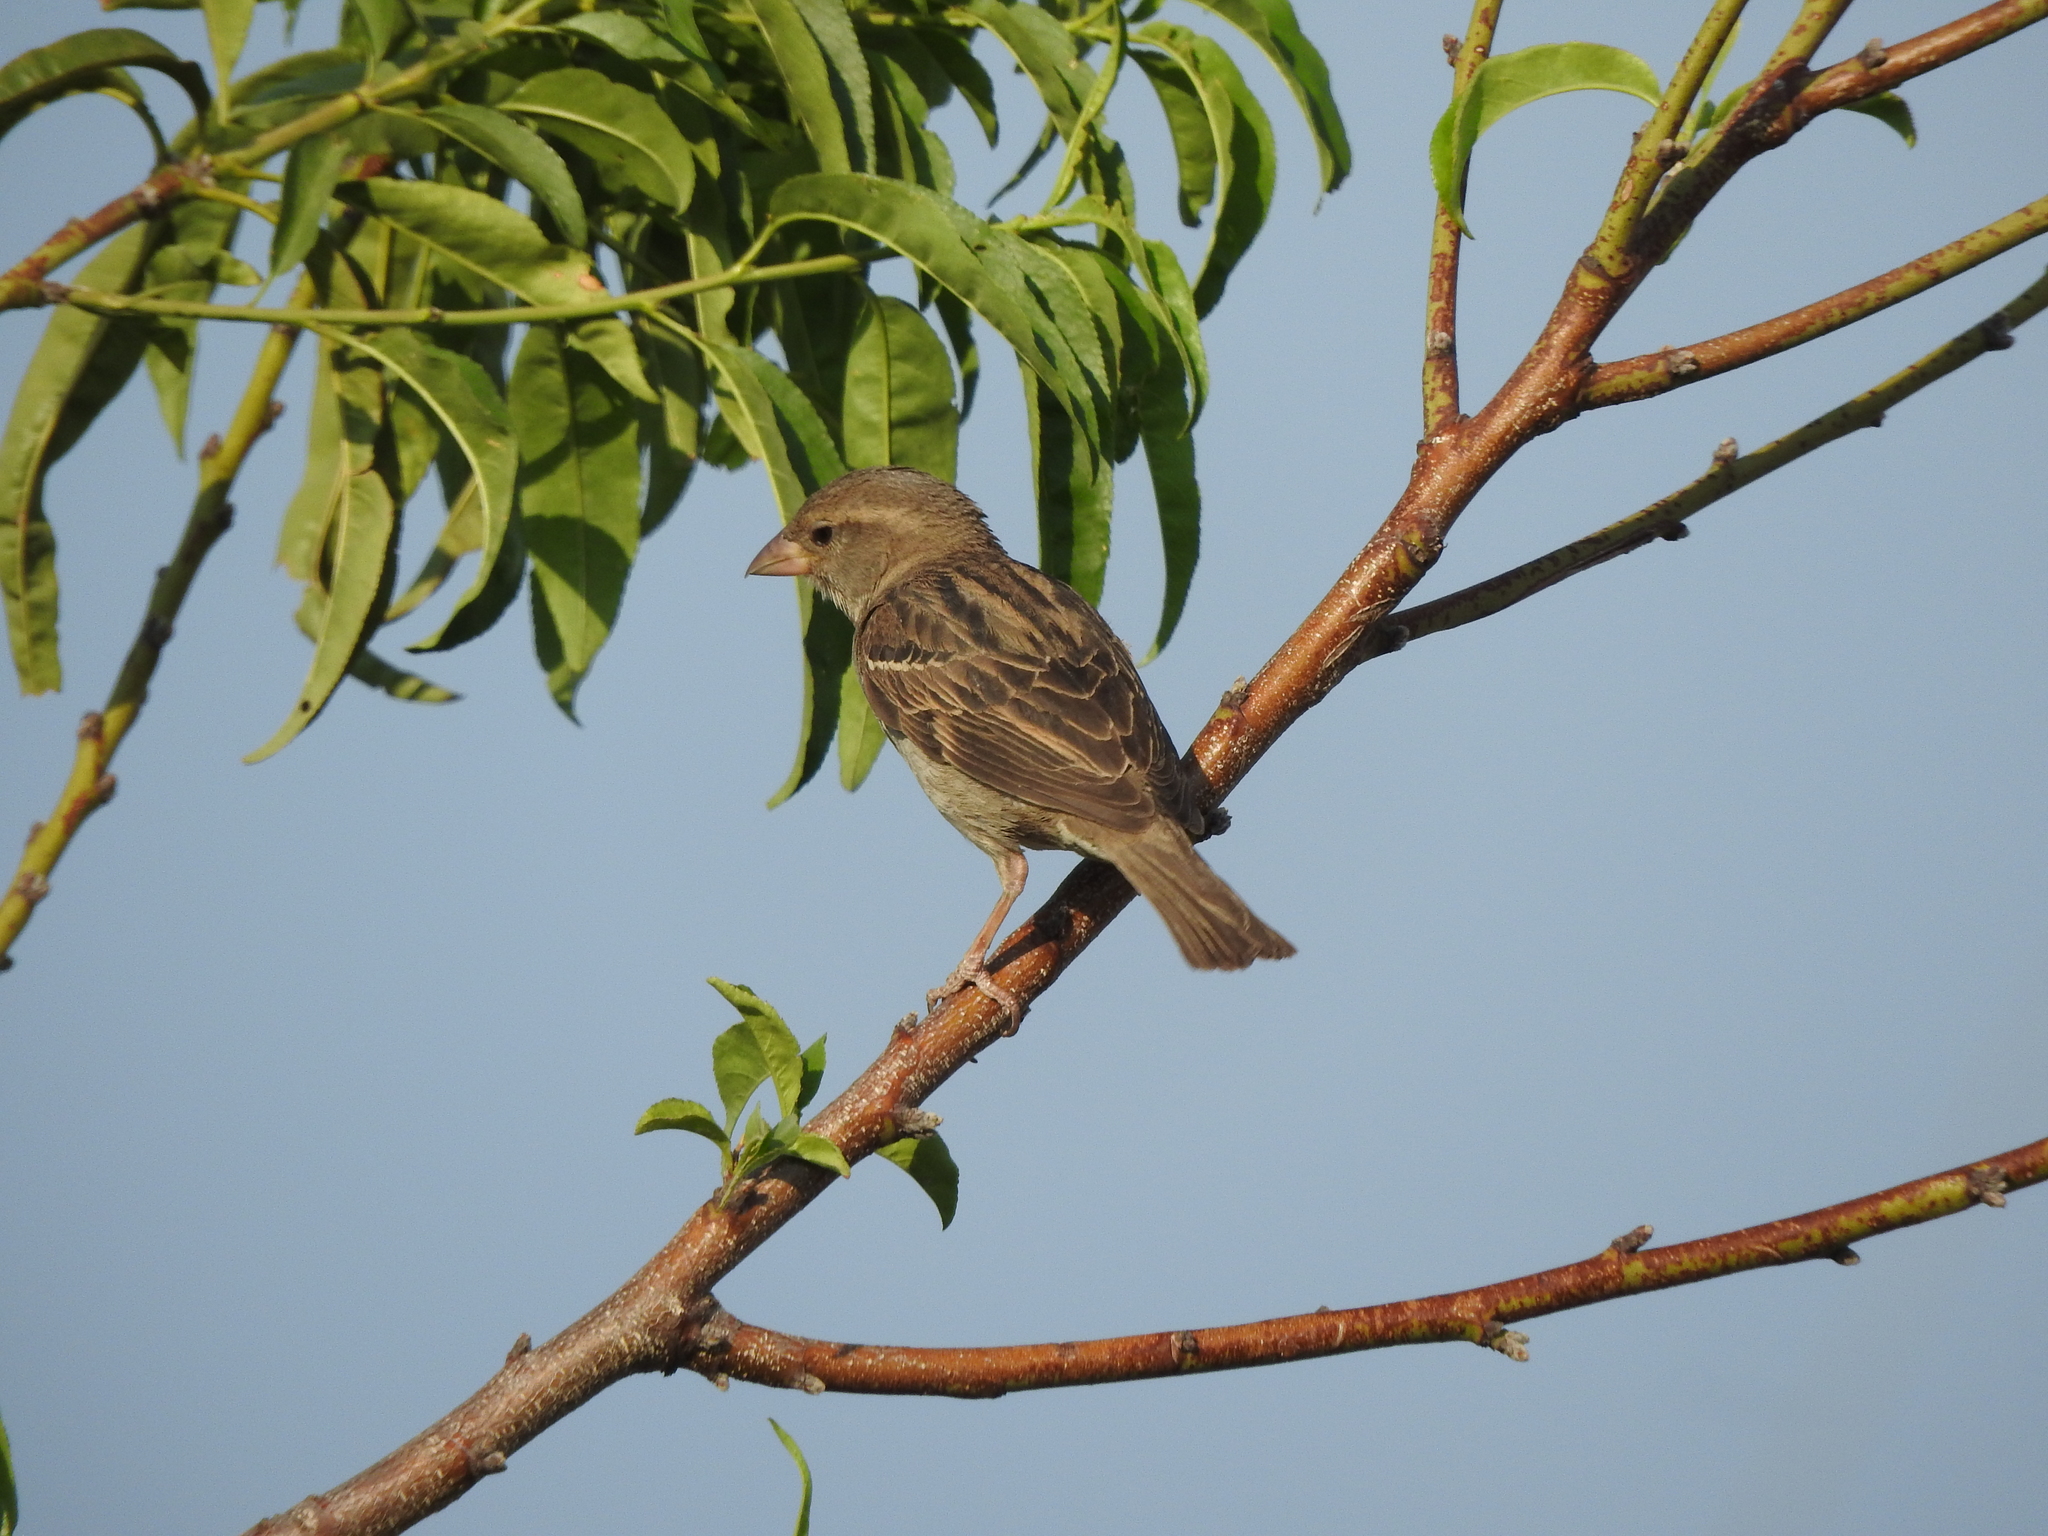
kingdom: Animalia
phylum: Chordata
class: Aves
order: Passeriformes
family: Fringillidae
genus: Haemorhous
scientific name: Haemorhous mexicanus
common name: House finch
